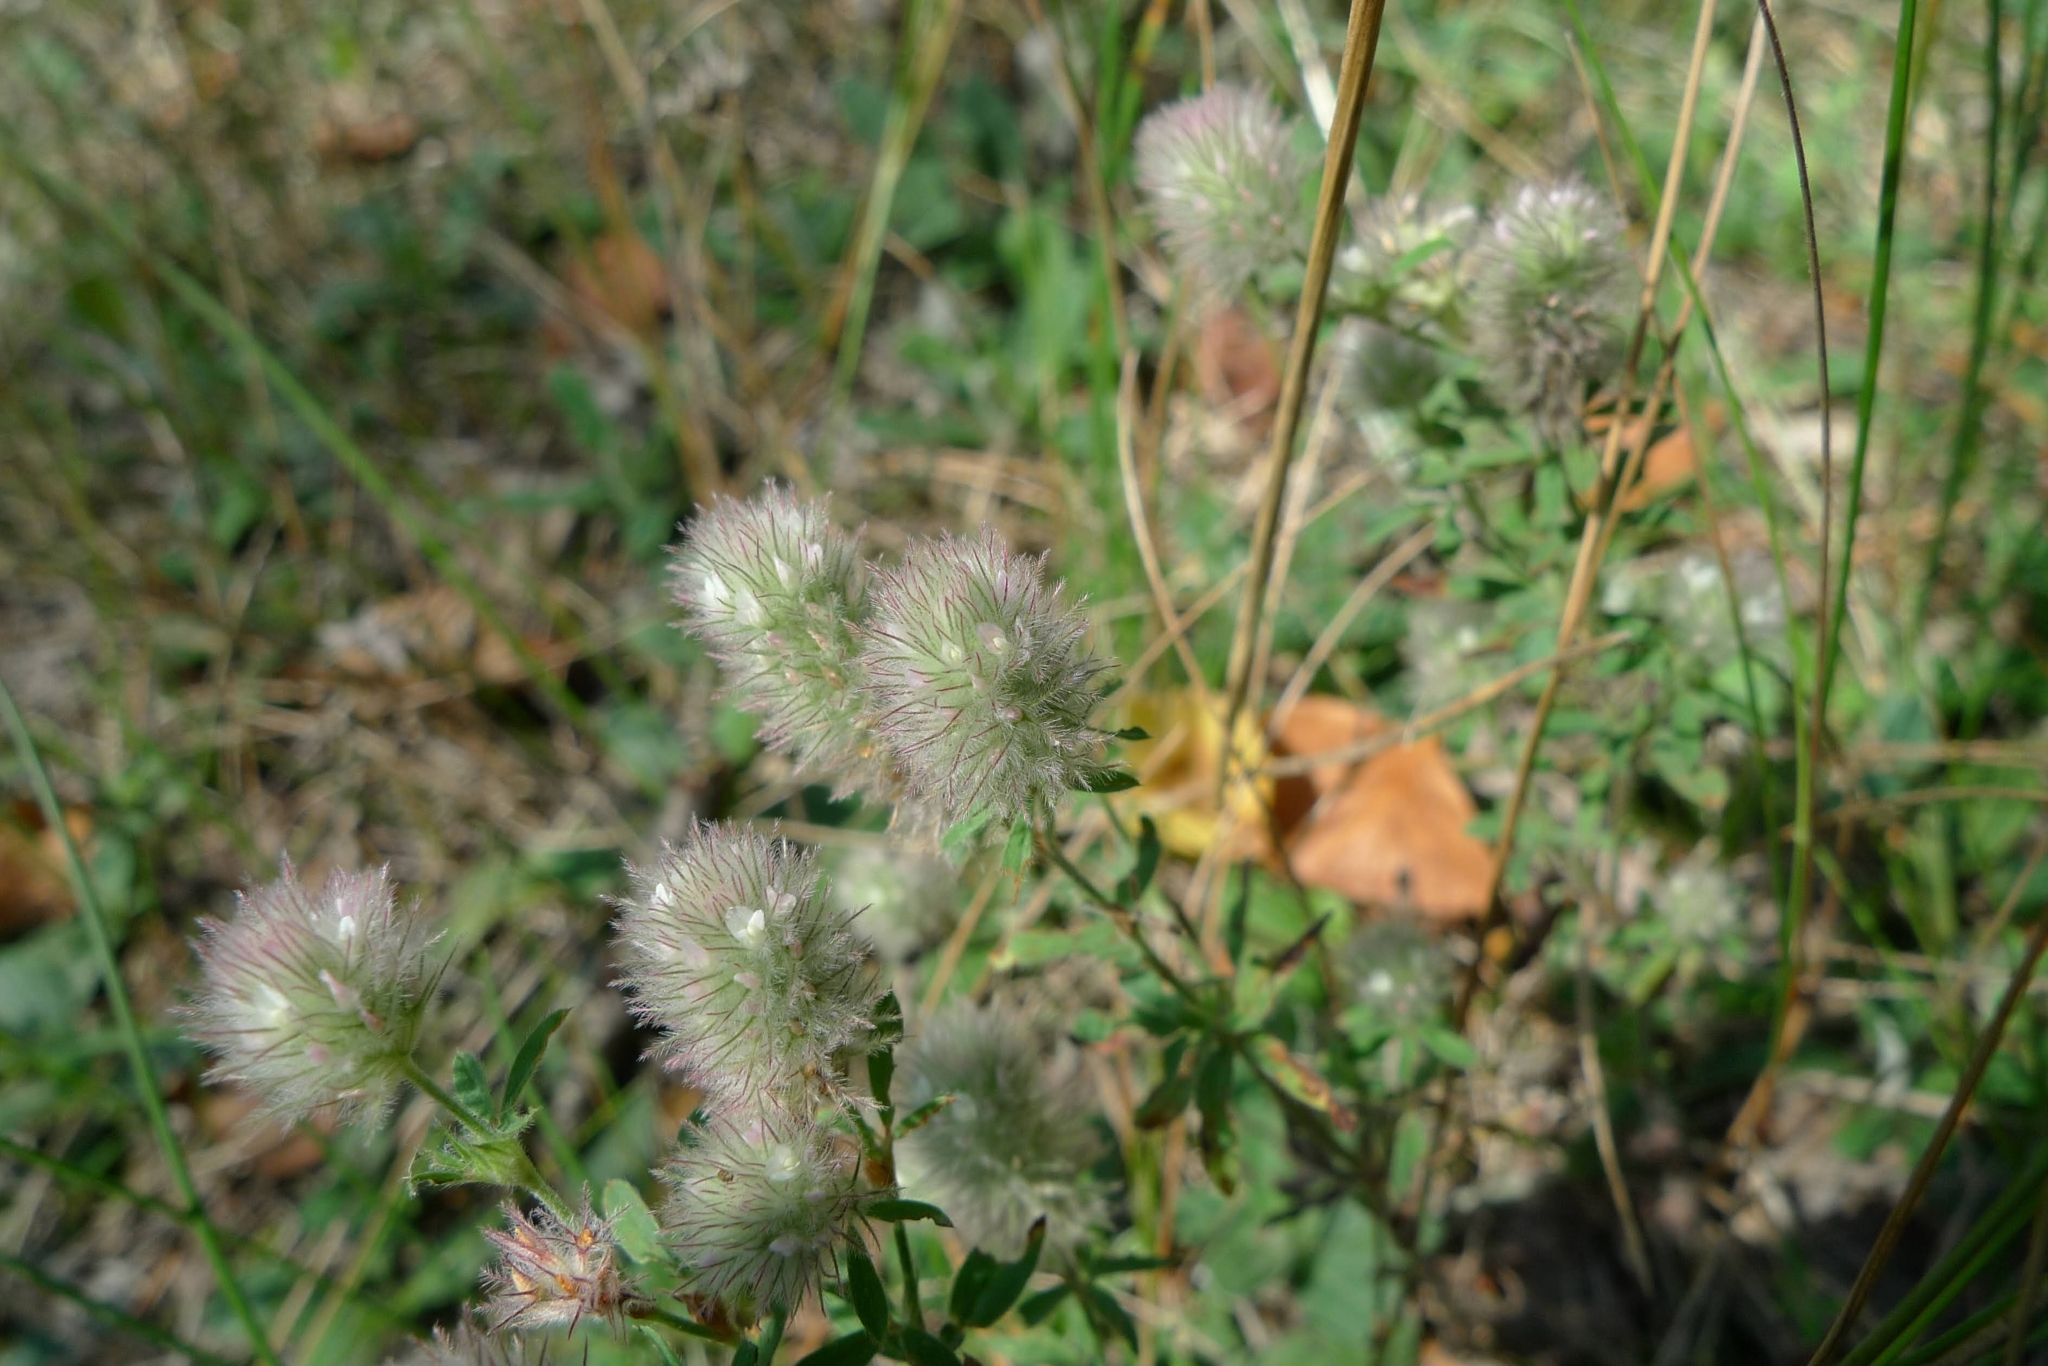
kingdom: Plantae
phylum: Tracheophyta
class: Magnoliopsida
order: Fabales
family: Fabaceae
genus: Trifolium
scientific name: Trifolium arvense
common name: Hare's-foot clover
